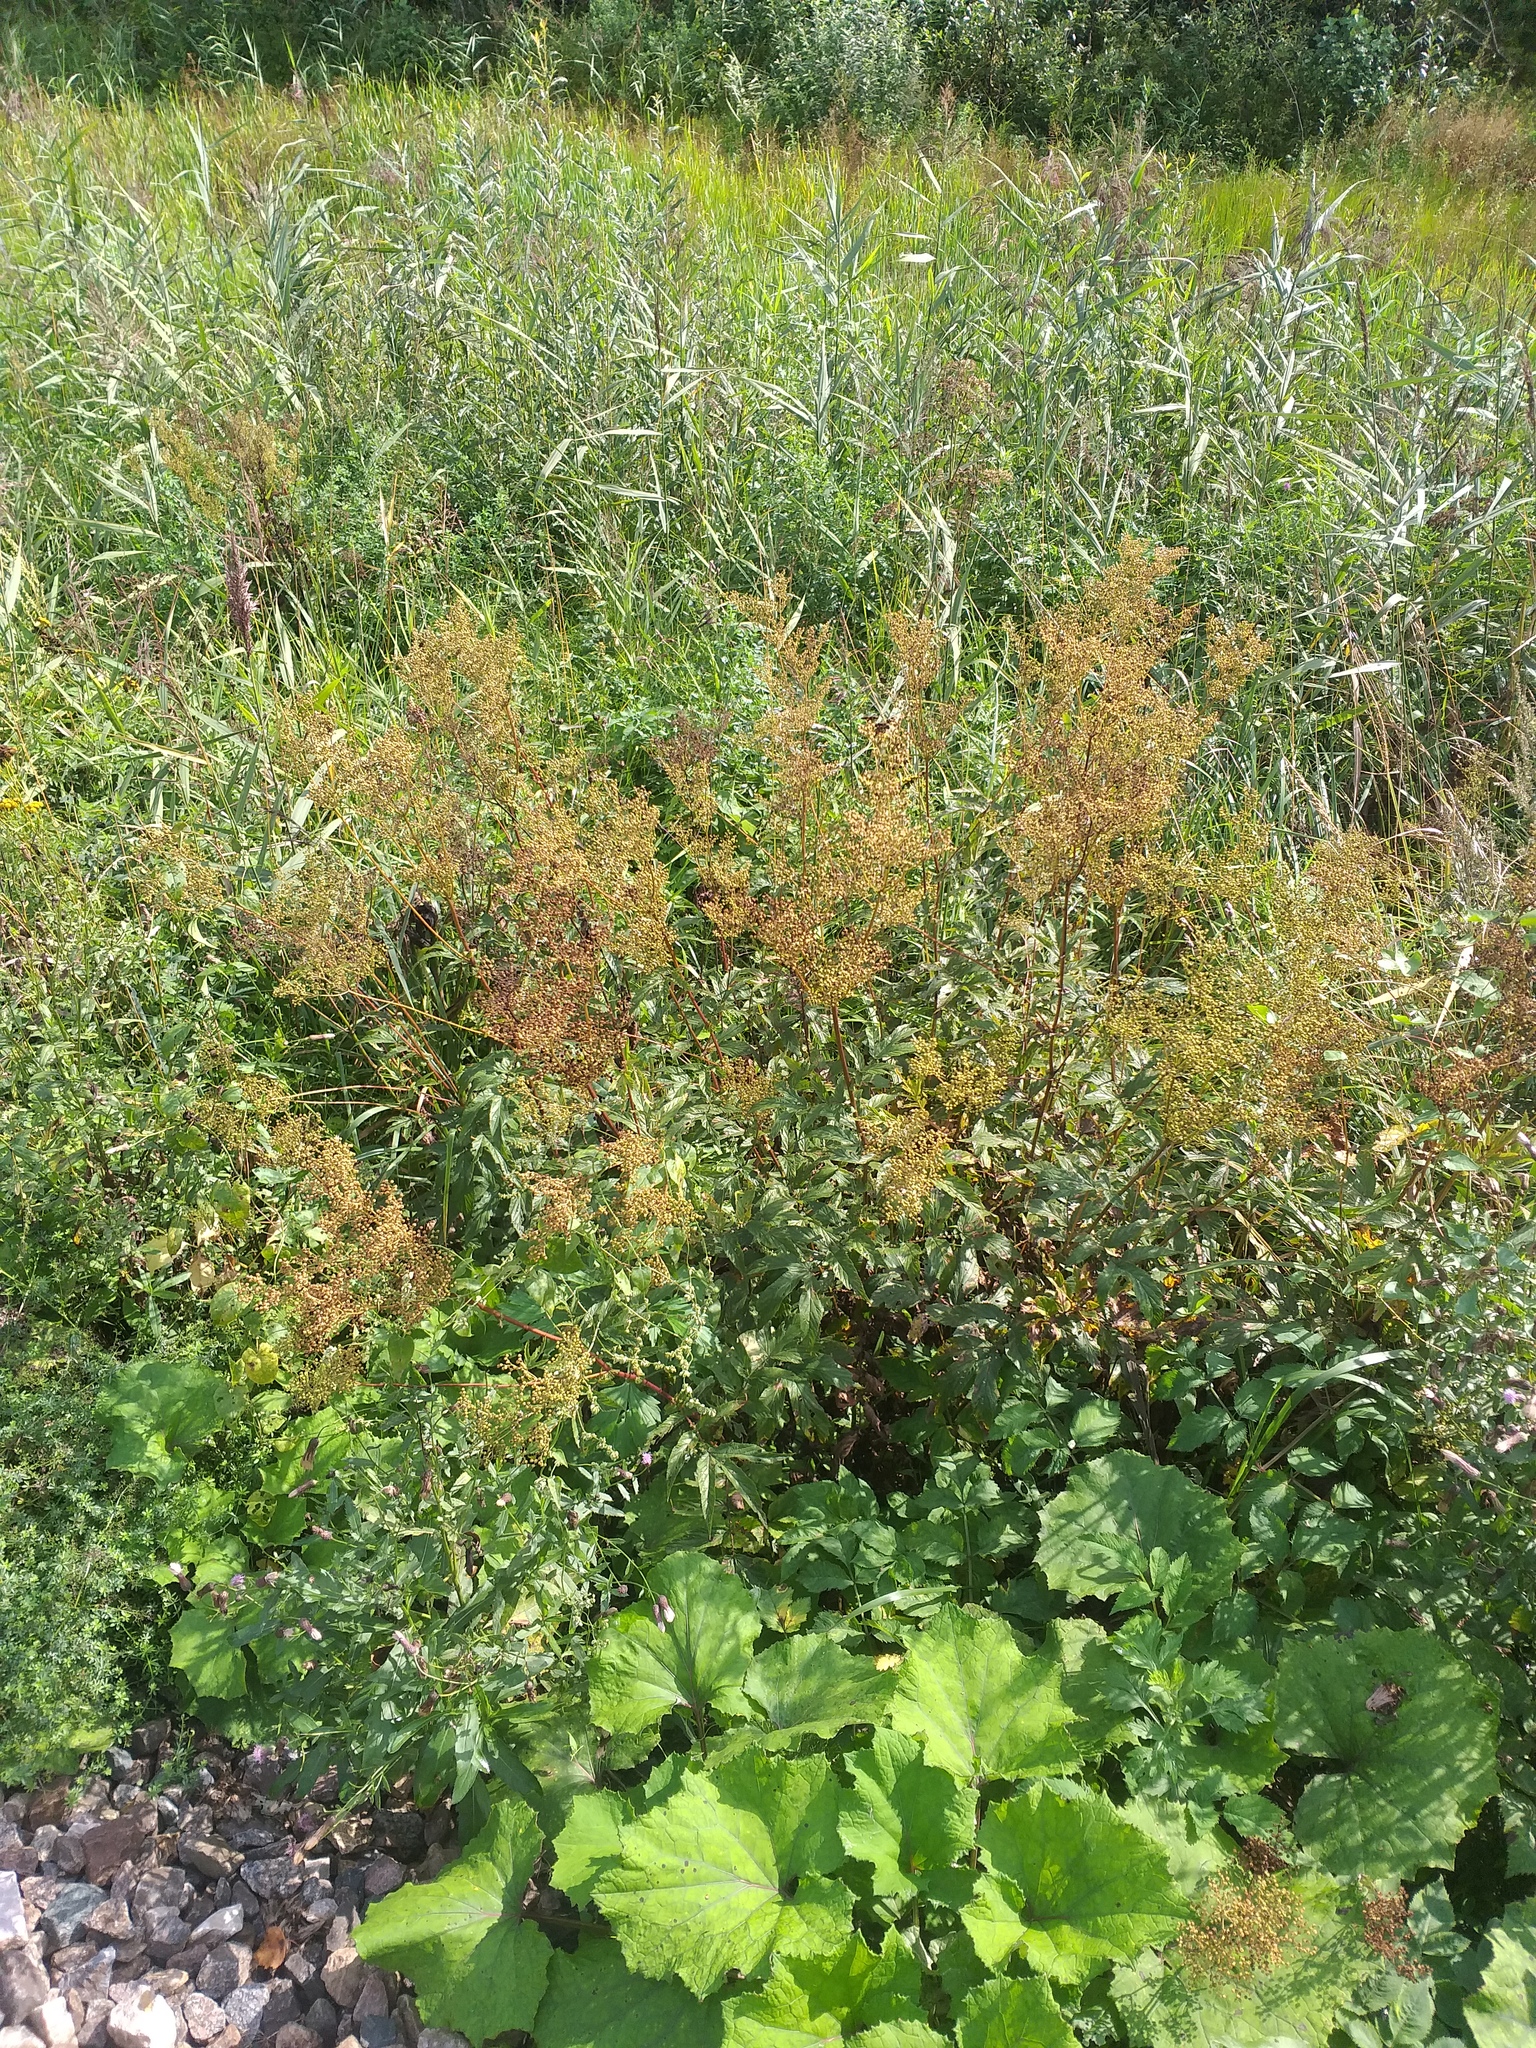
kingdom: Plantae
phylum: Tracheophyta
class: Magnoliopsida
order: Rosales
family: Rosaceae
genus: Filipendula
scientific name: Filipendula ulmaria
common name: Meadowsweet
